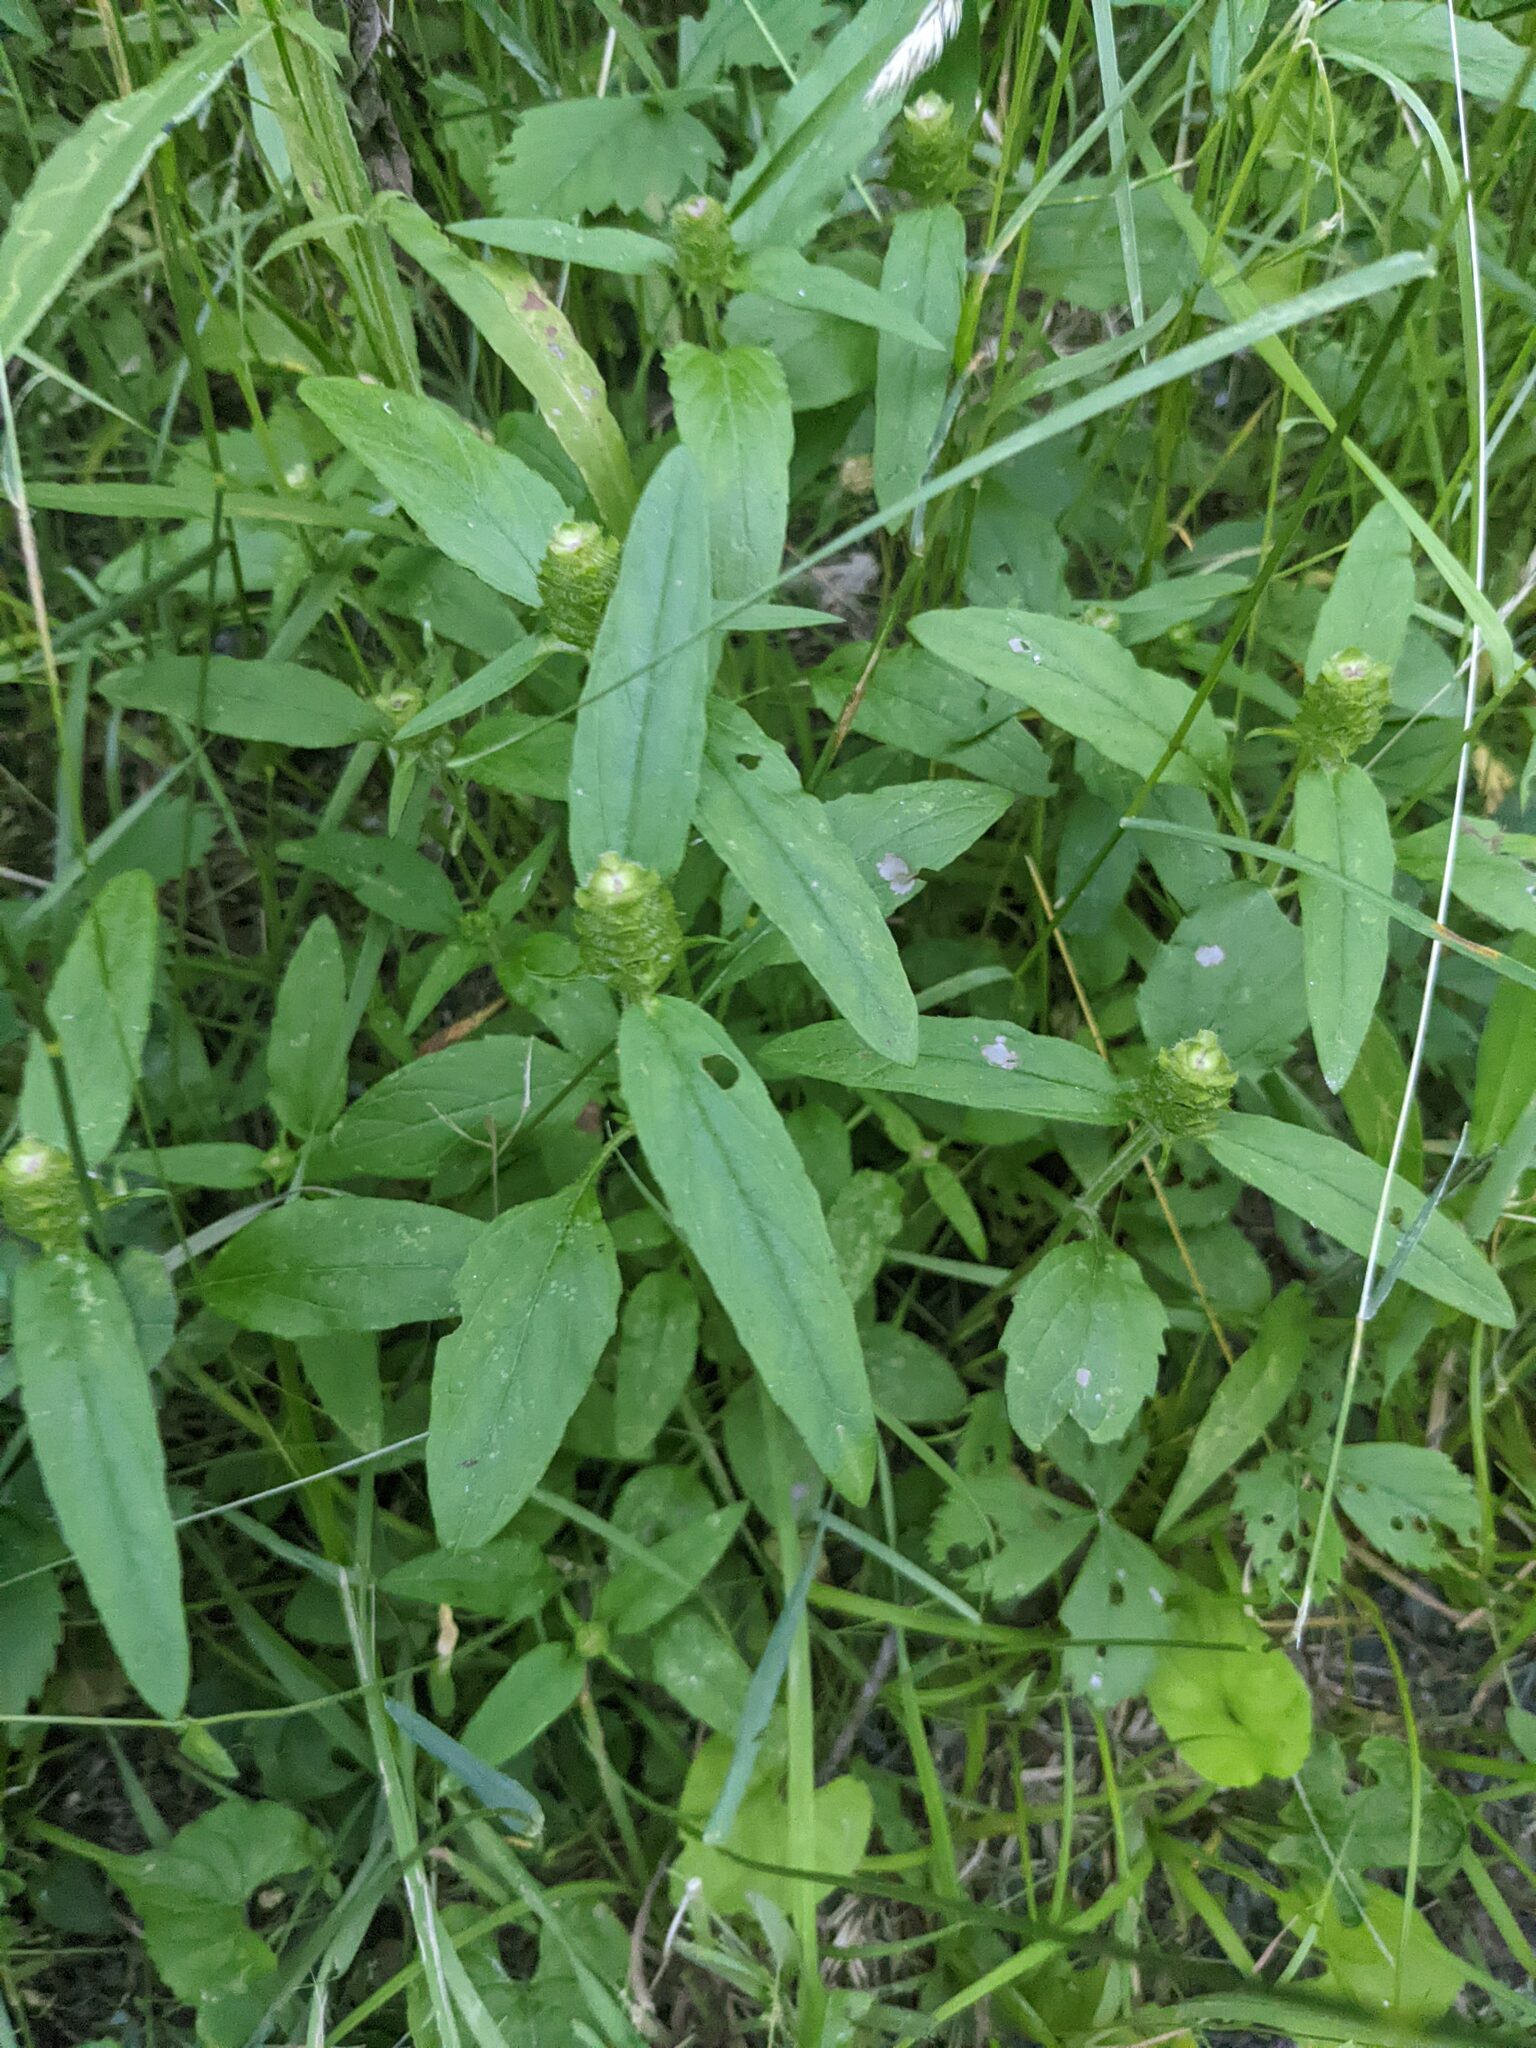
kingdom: Plantae
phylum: Tracheophyta
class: Magnoliopsida
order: Lamiales
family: Lamiaceae
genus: Prunella
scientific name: Prunella vulgaris
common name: Heal-all
